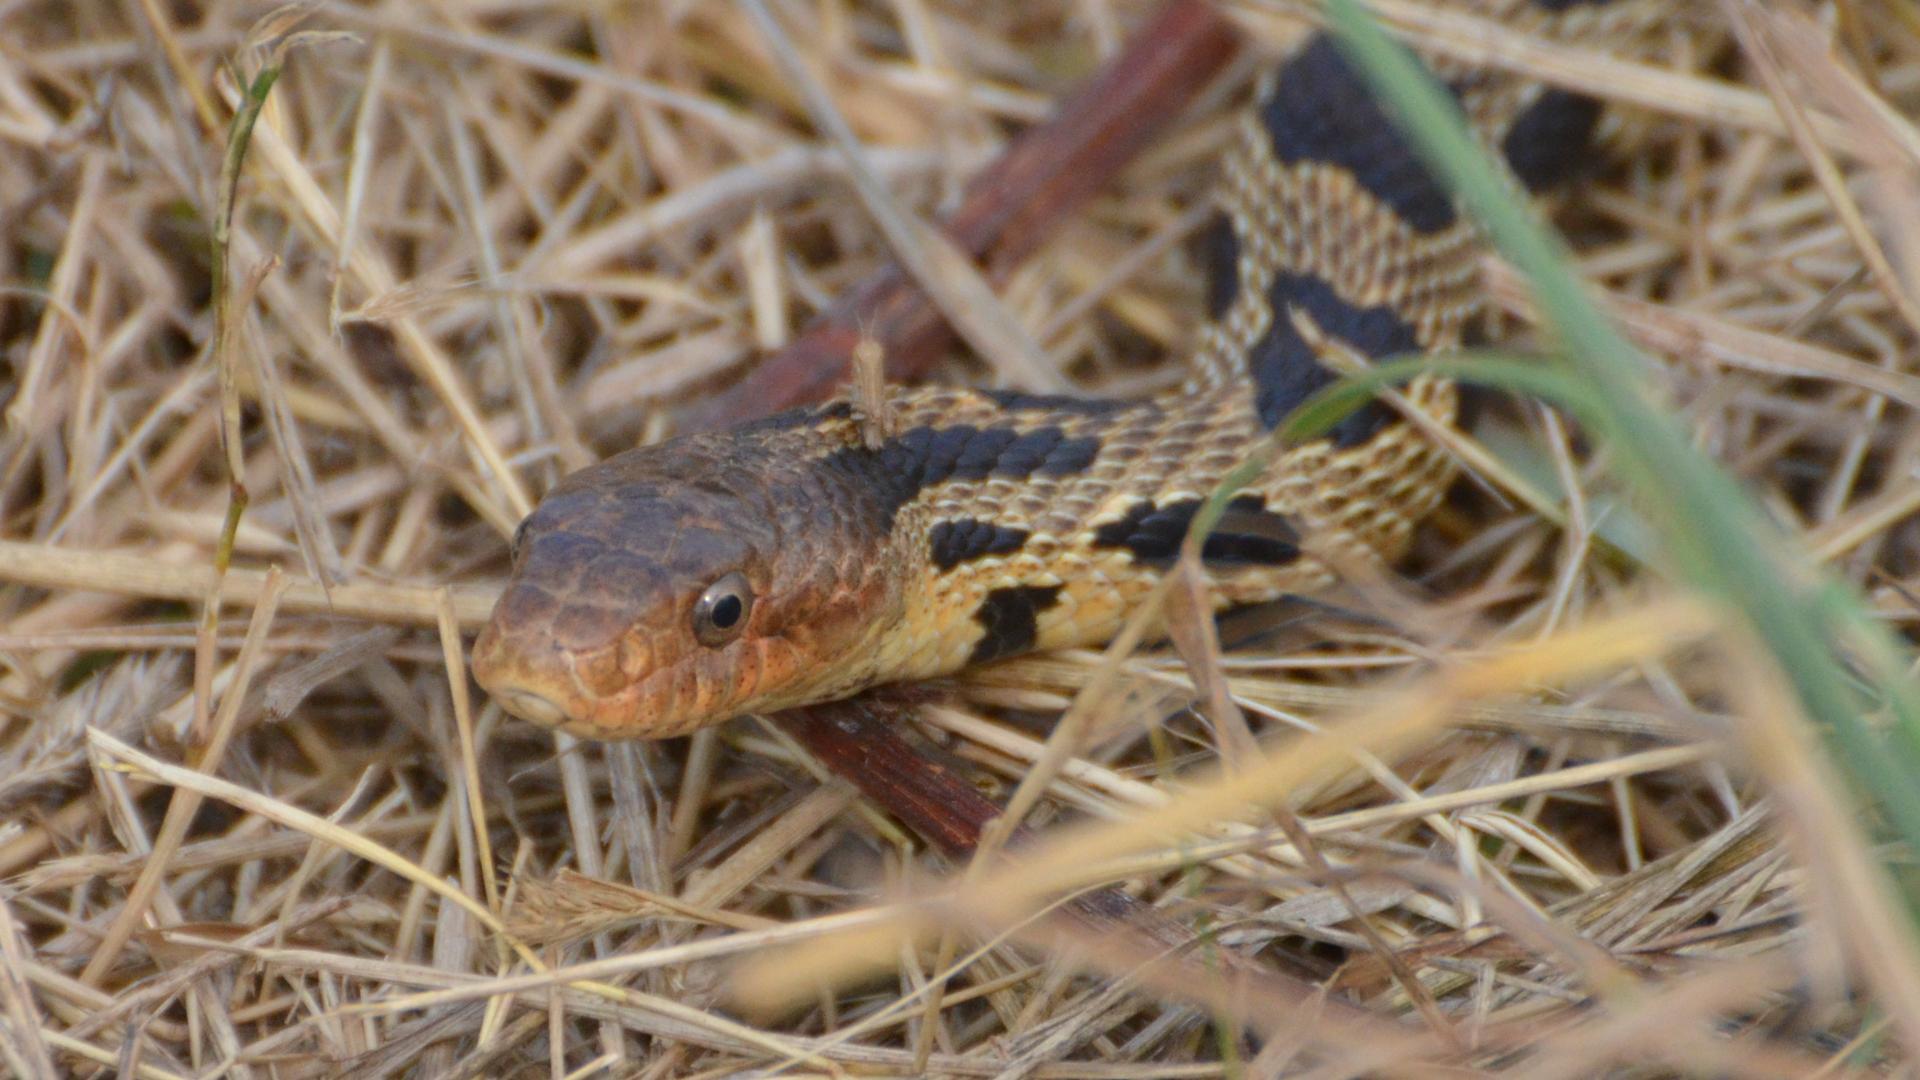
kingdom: Animalia
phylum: Chordata
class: Squamata
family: Colubridae
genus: Pantherophis
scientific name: Pantherophis vulpinus
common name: Eastern fox snake
